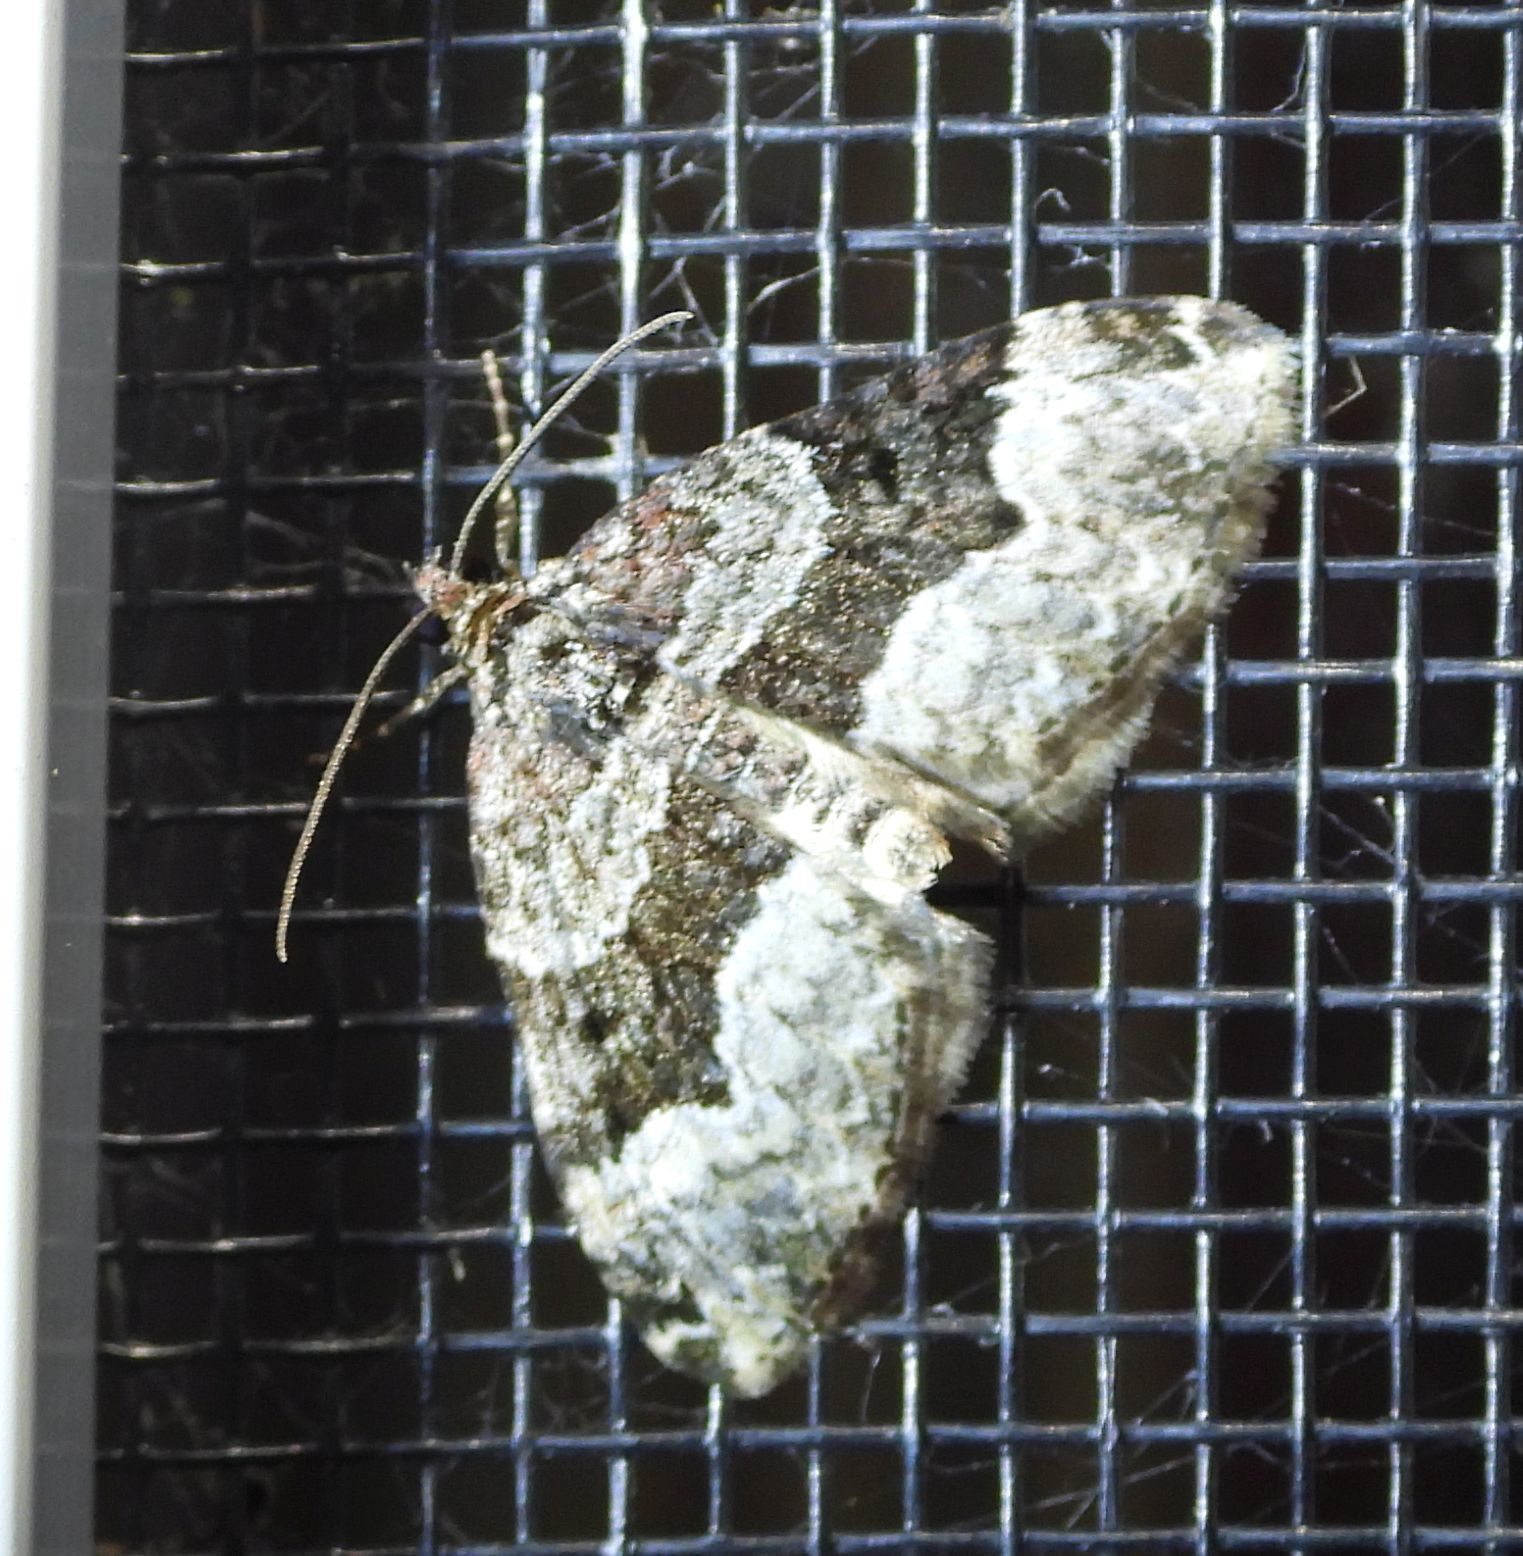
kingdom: Animalia
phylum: Arthropoda
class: Insecta
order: Lepidoptera
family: Geometridae
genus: Euphyia
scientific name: Euphyia intermediata
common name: Sharp-angled carpet
